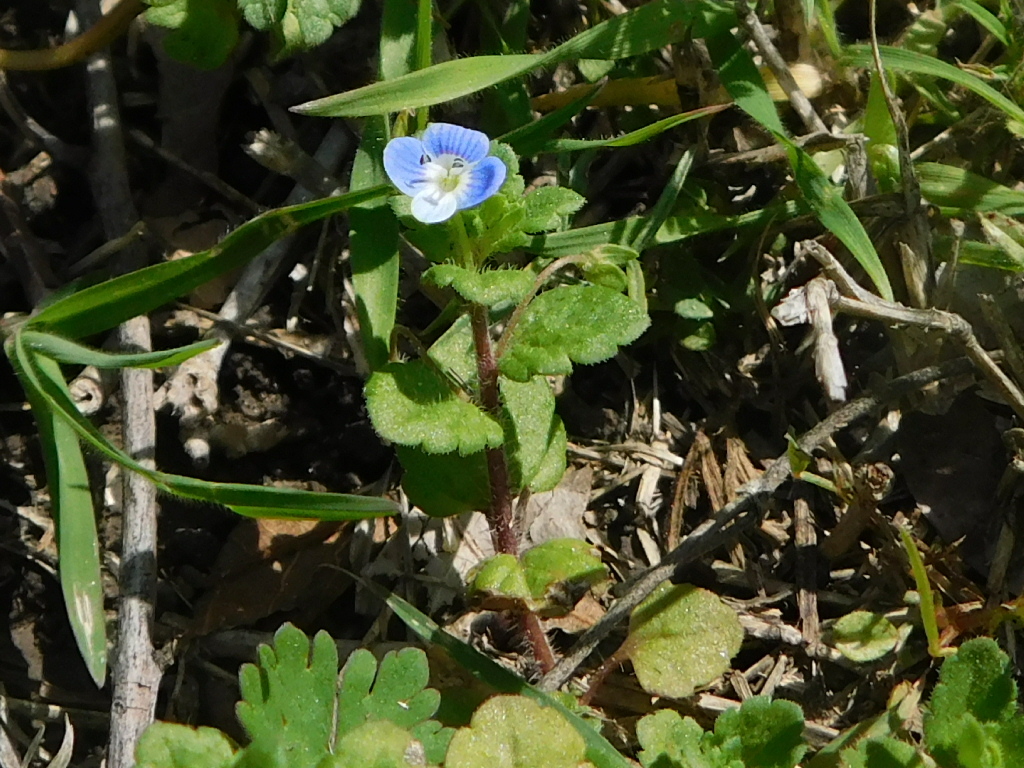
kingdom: Plantae
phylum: Tracheophyta
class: Magnoliopsida
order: Lamiales
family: Plantaginaceae
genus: Veronica
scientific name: Veronica persica
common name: Common field-speedwell
